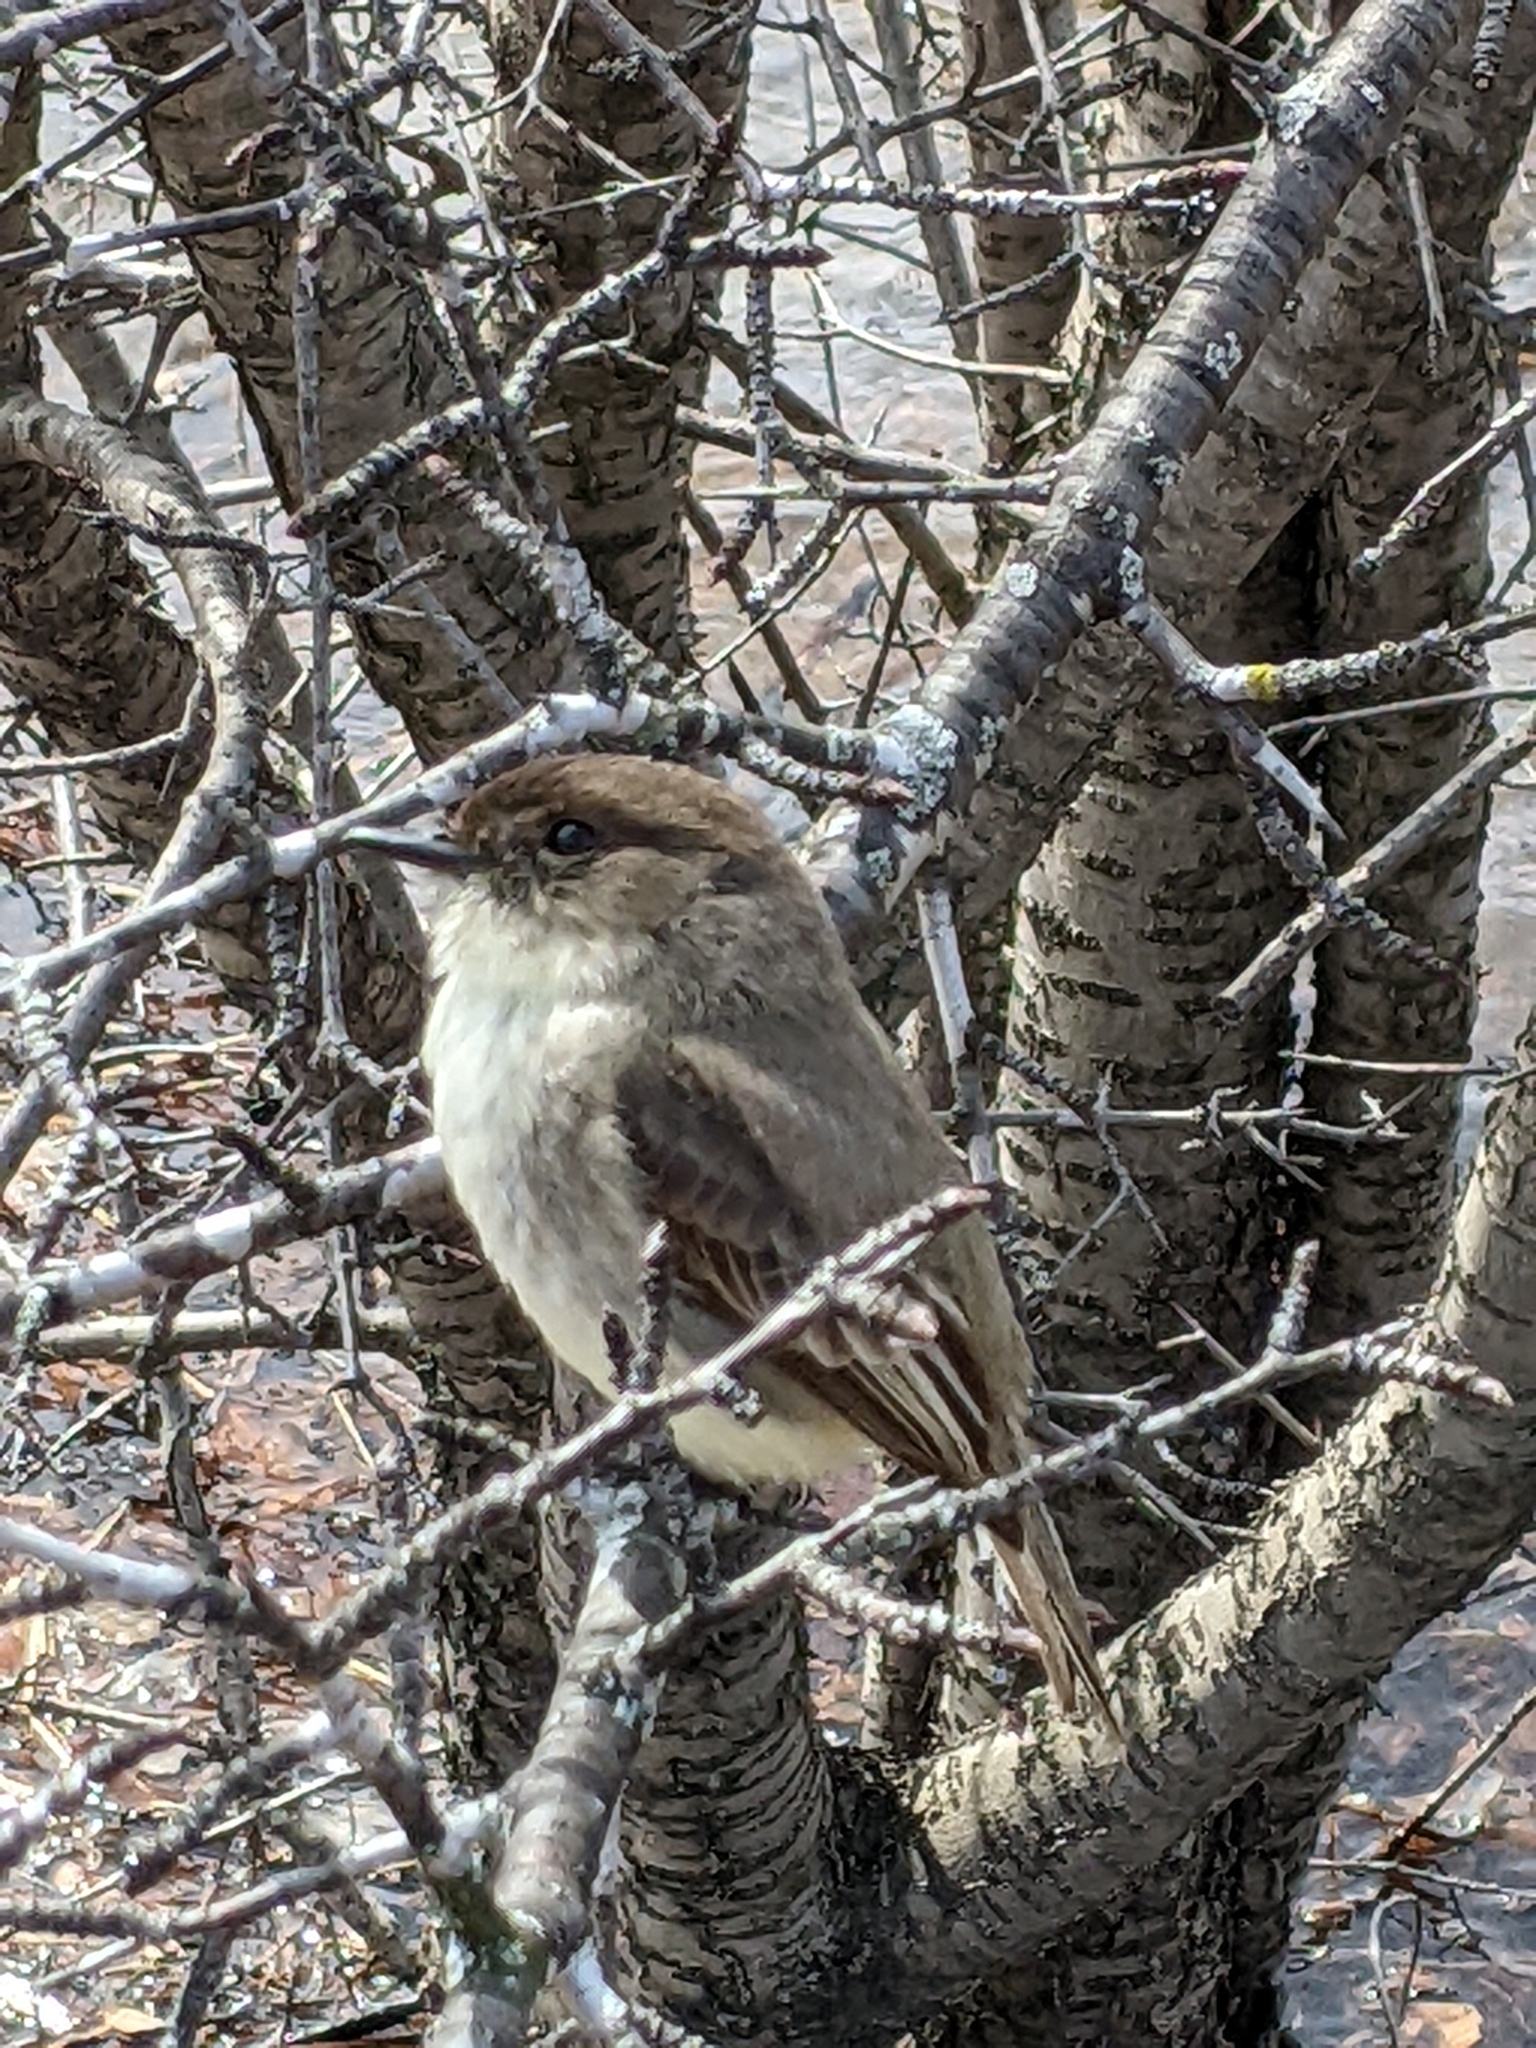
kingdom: Animalia
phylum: Chordata
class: Aves
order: Passeriformes
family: Tyrannidae
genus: Sayornis
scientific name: Sayornis phoebe
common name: Eastern phoebe
